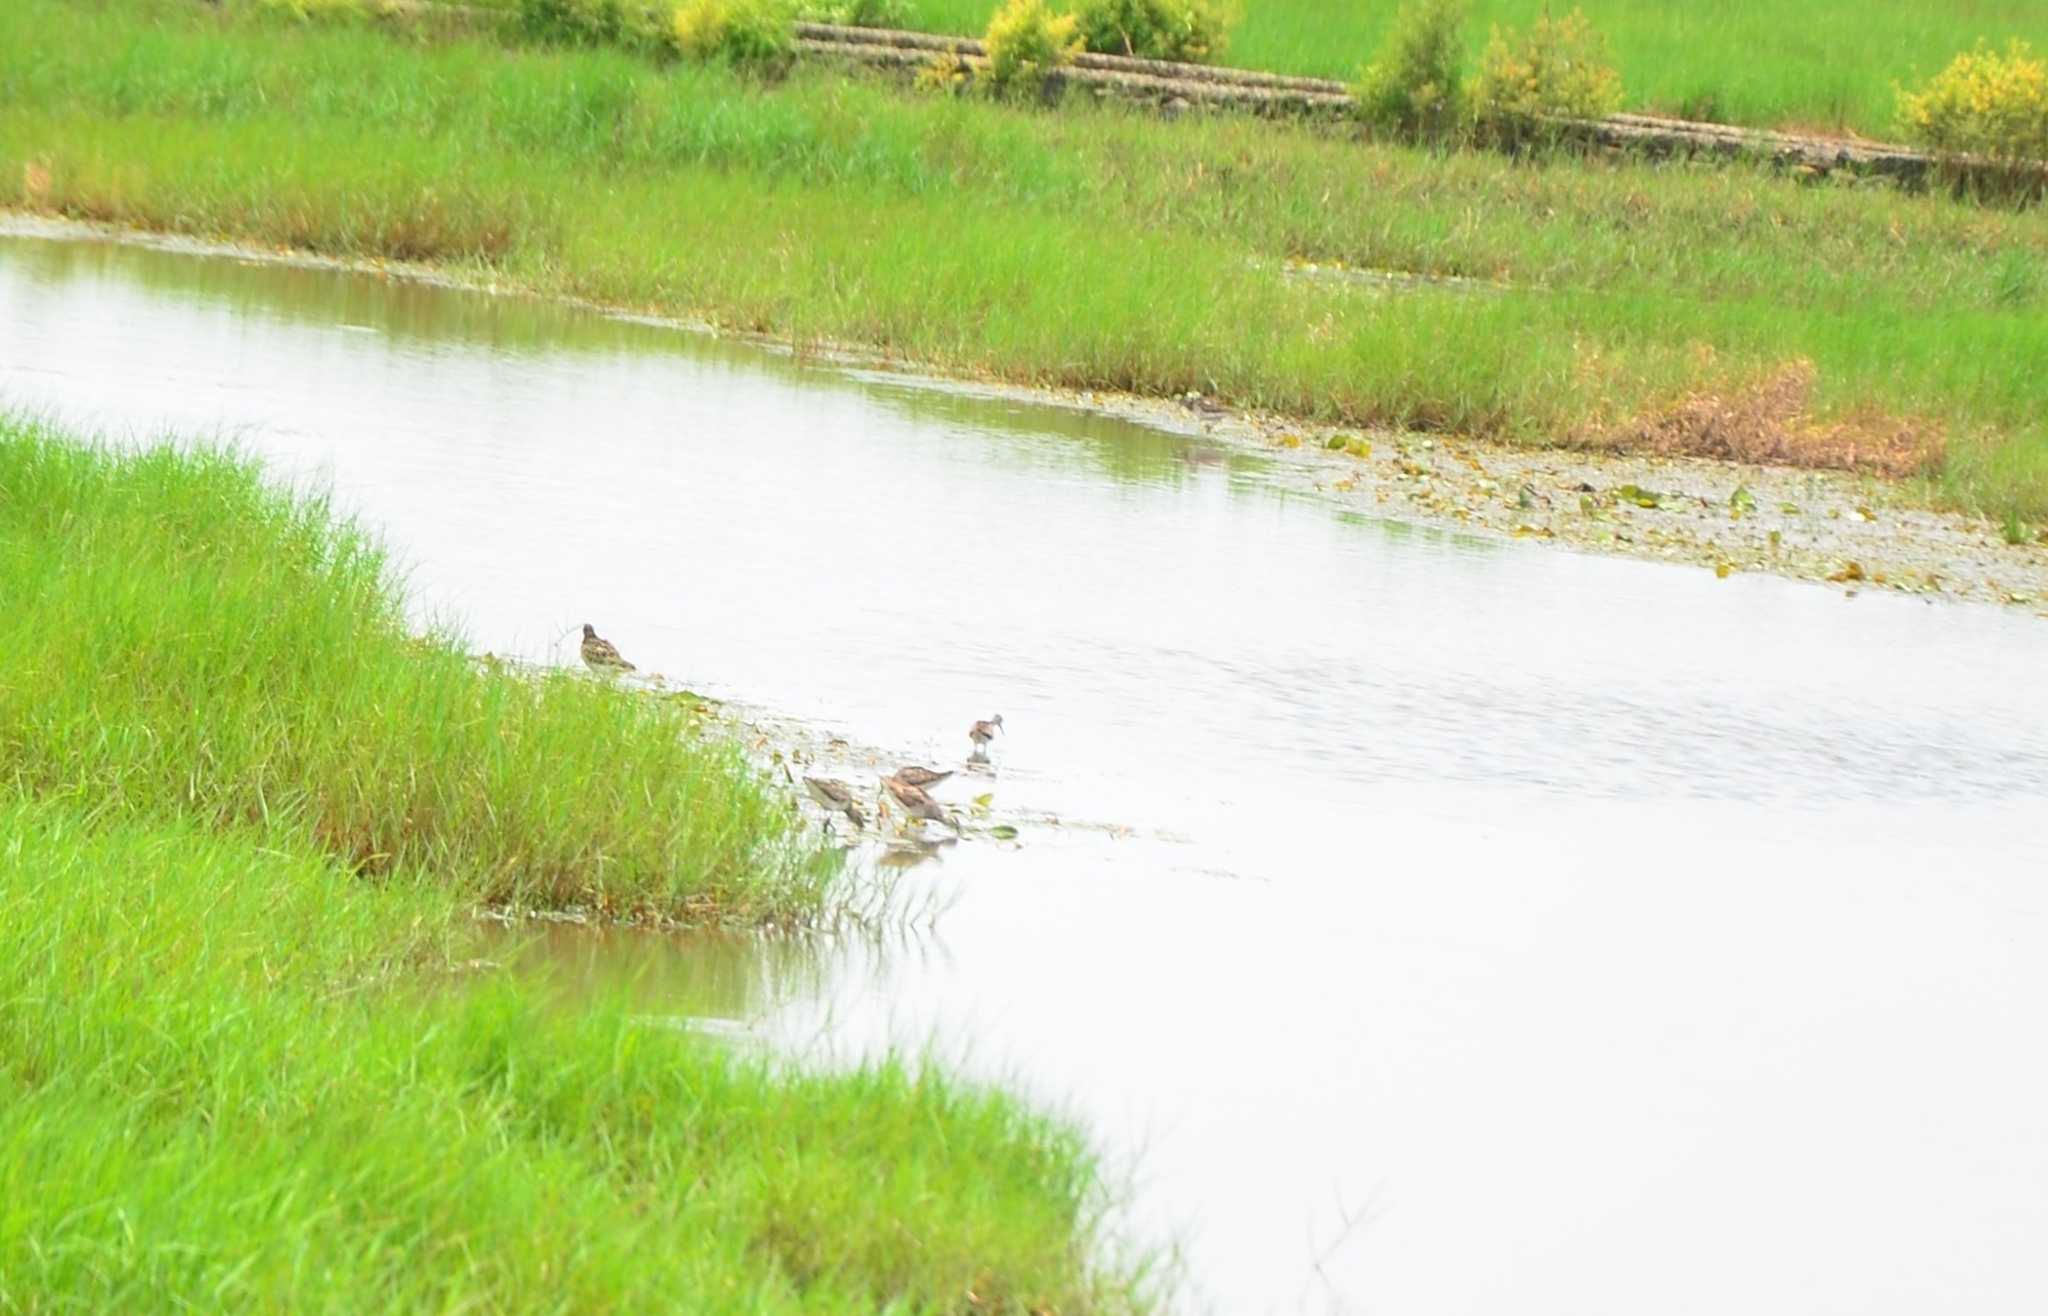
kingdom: Animalia
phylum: Chordata
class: Aves
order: Charadriiformes
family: Scolopacidae
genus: Tringa
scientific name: Tringa glareola
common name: Wood sandpiper
